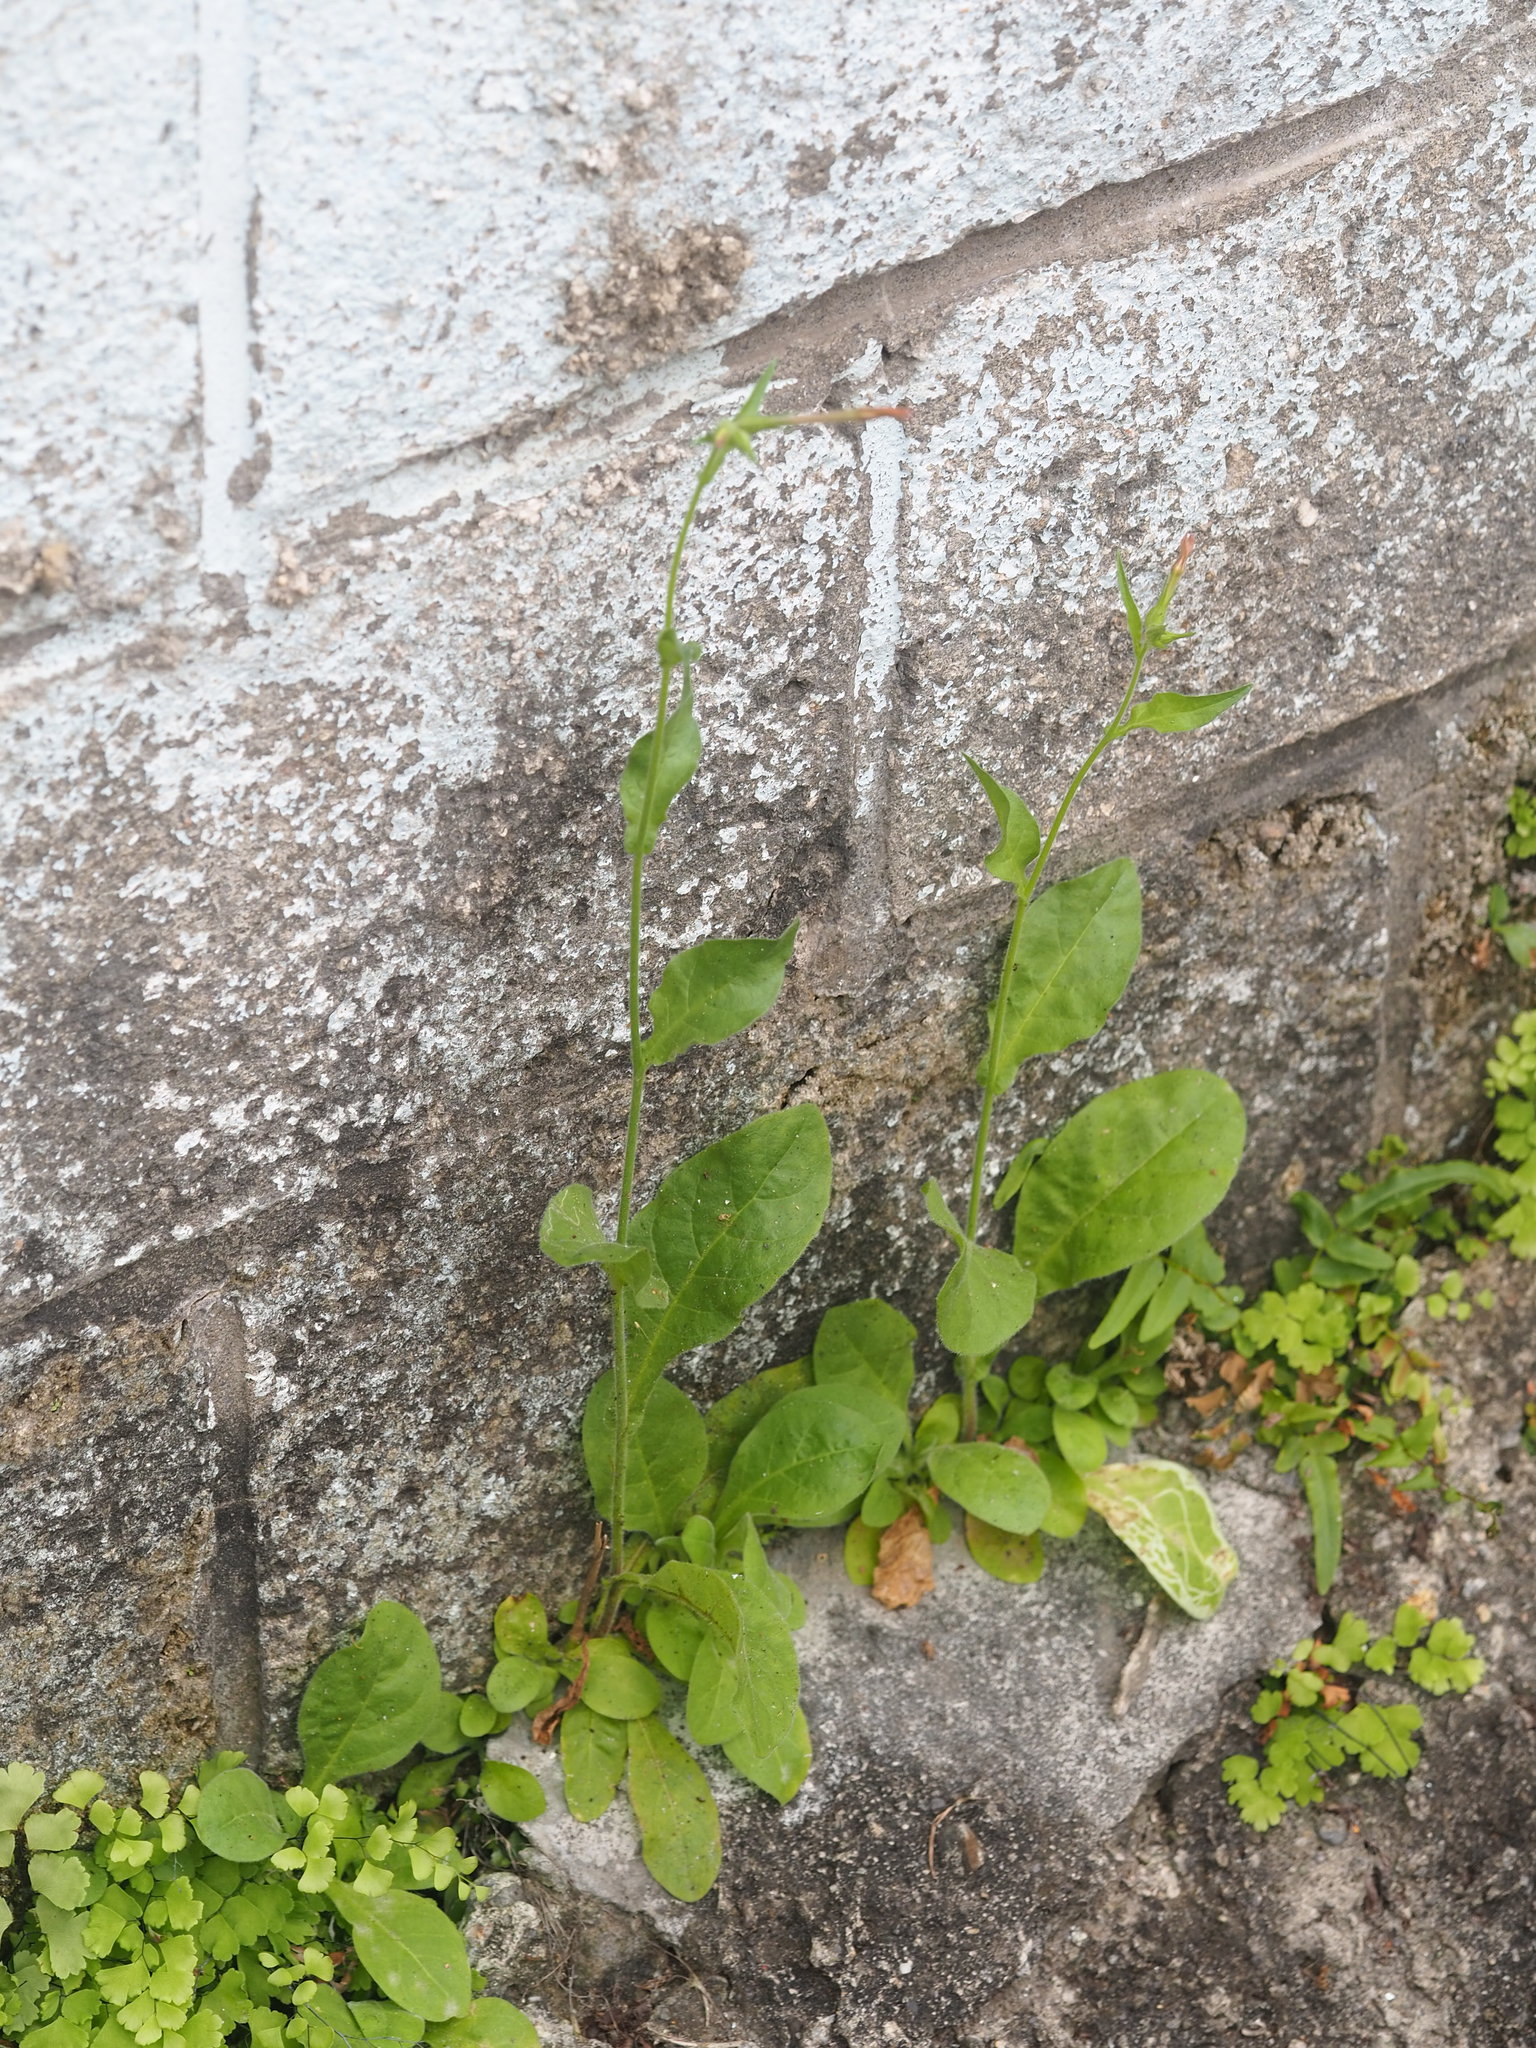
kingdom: Plantae
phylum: Tracheophyta
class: Magnoliopsida
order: Solanales
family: Solanaceae
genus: Nicotiana
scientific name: Nicotiana plumbaginifolia
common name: Tex-mex tobacco
